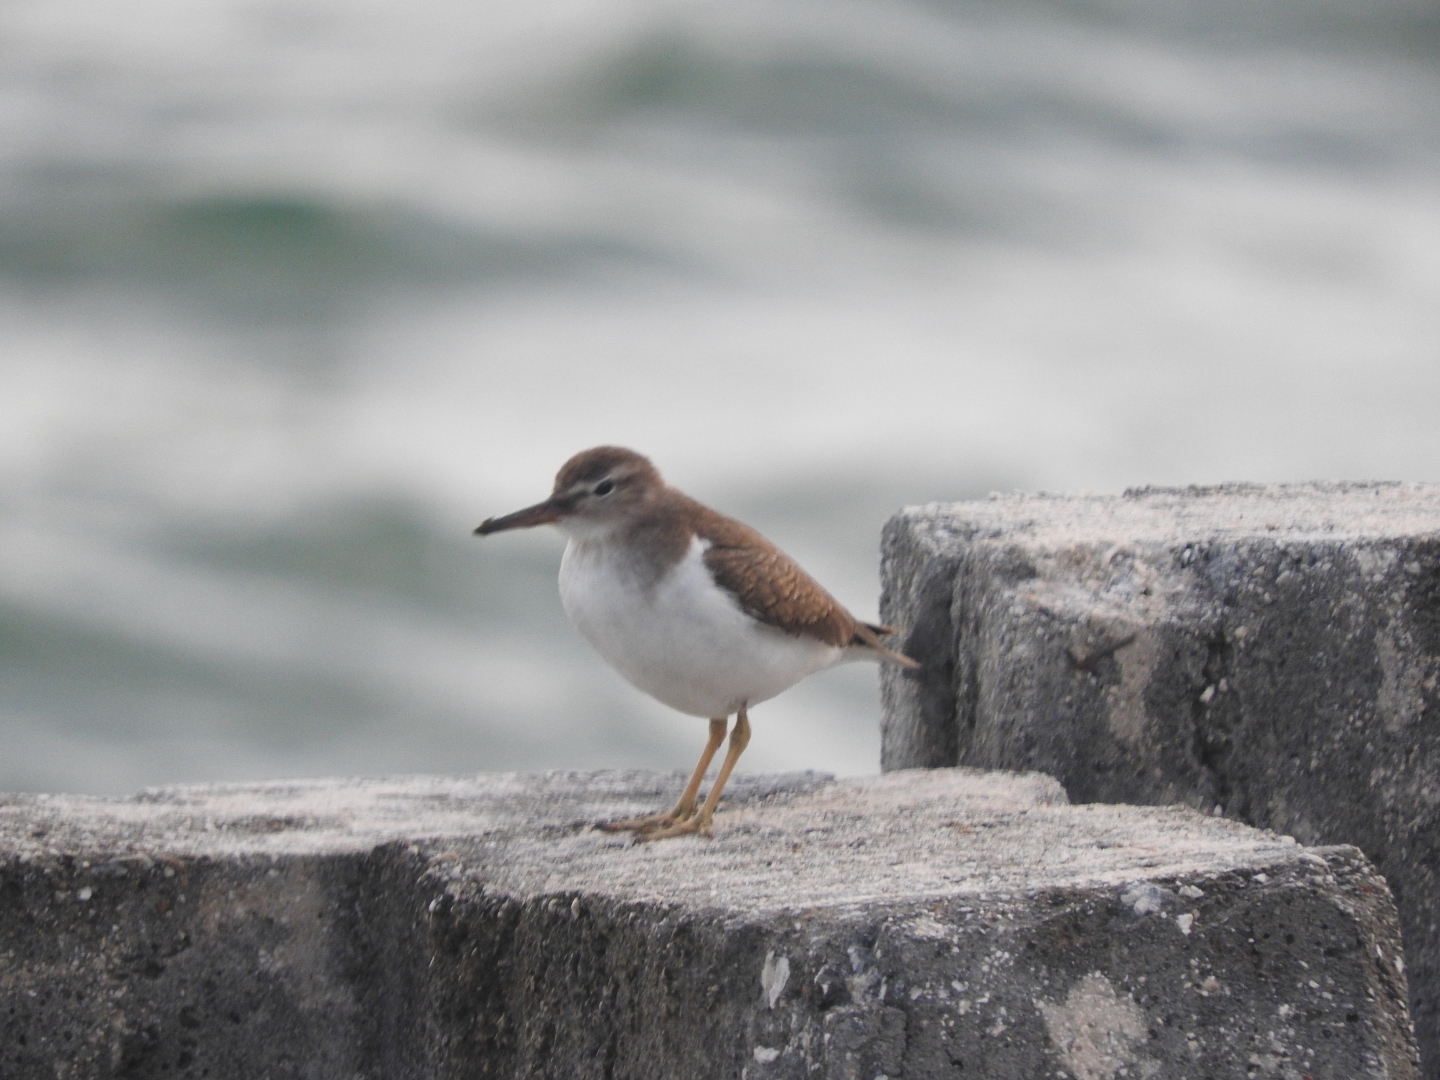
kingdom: Animalia
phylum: Chordata
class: Aves
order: Charadriiformes
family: Scolopacidae
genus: Actitis
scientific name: Actitis macularius
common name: Spotted sandpiper
